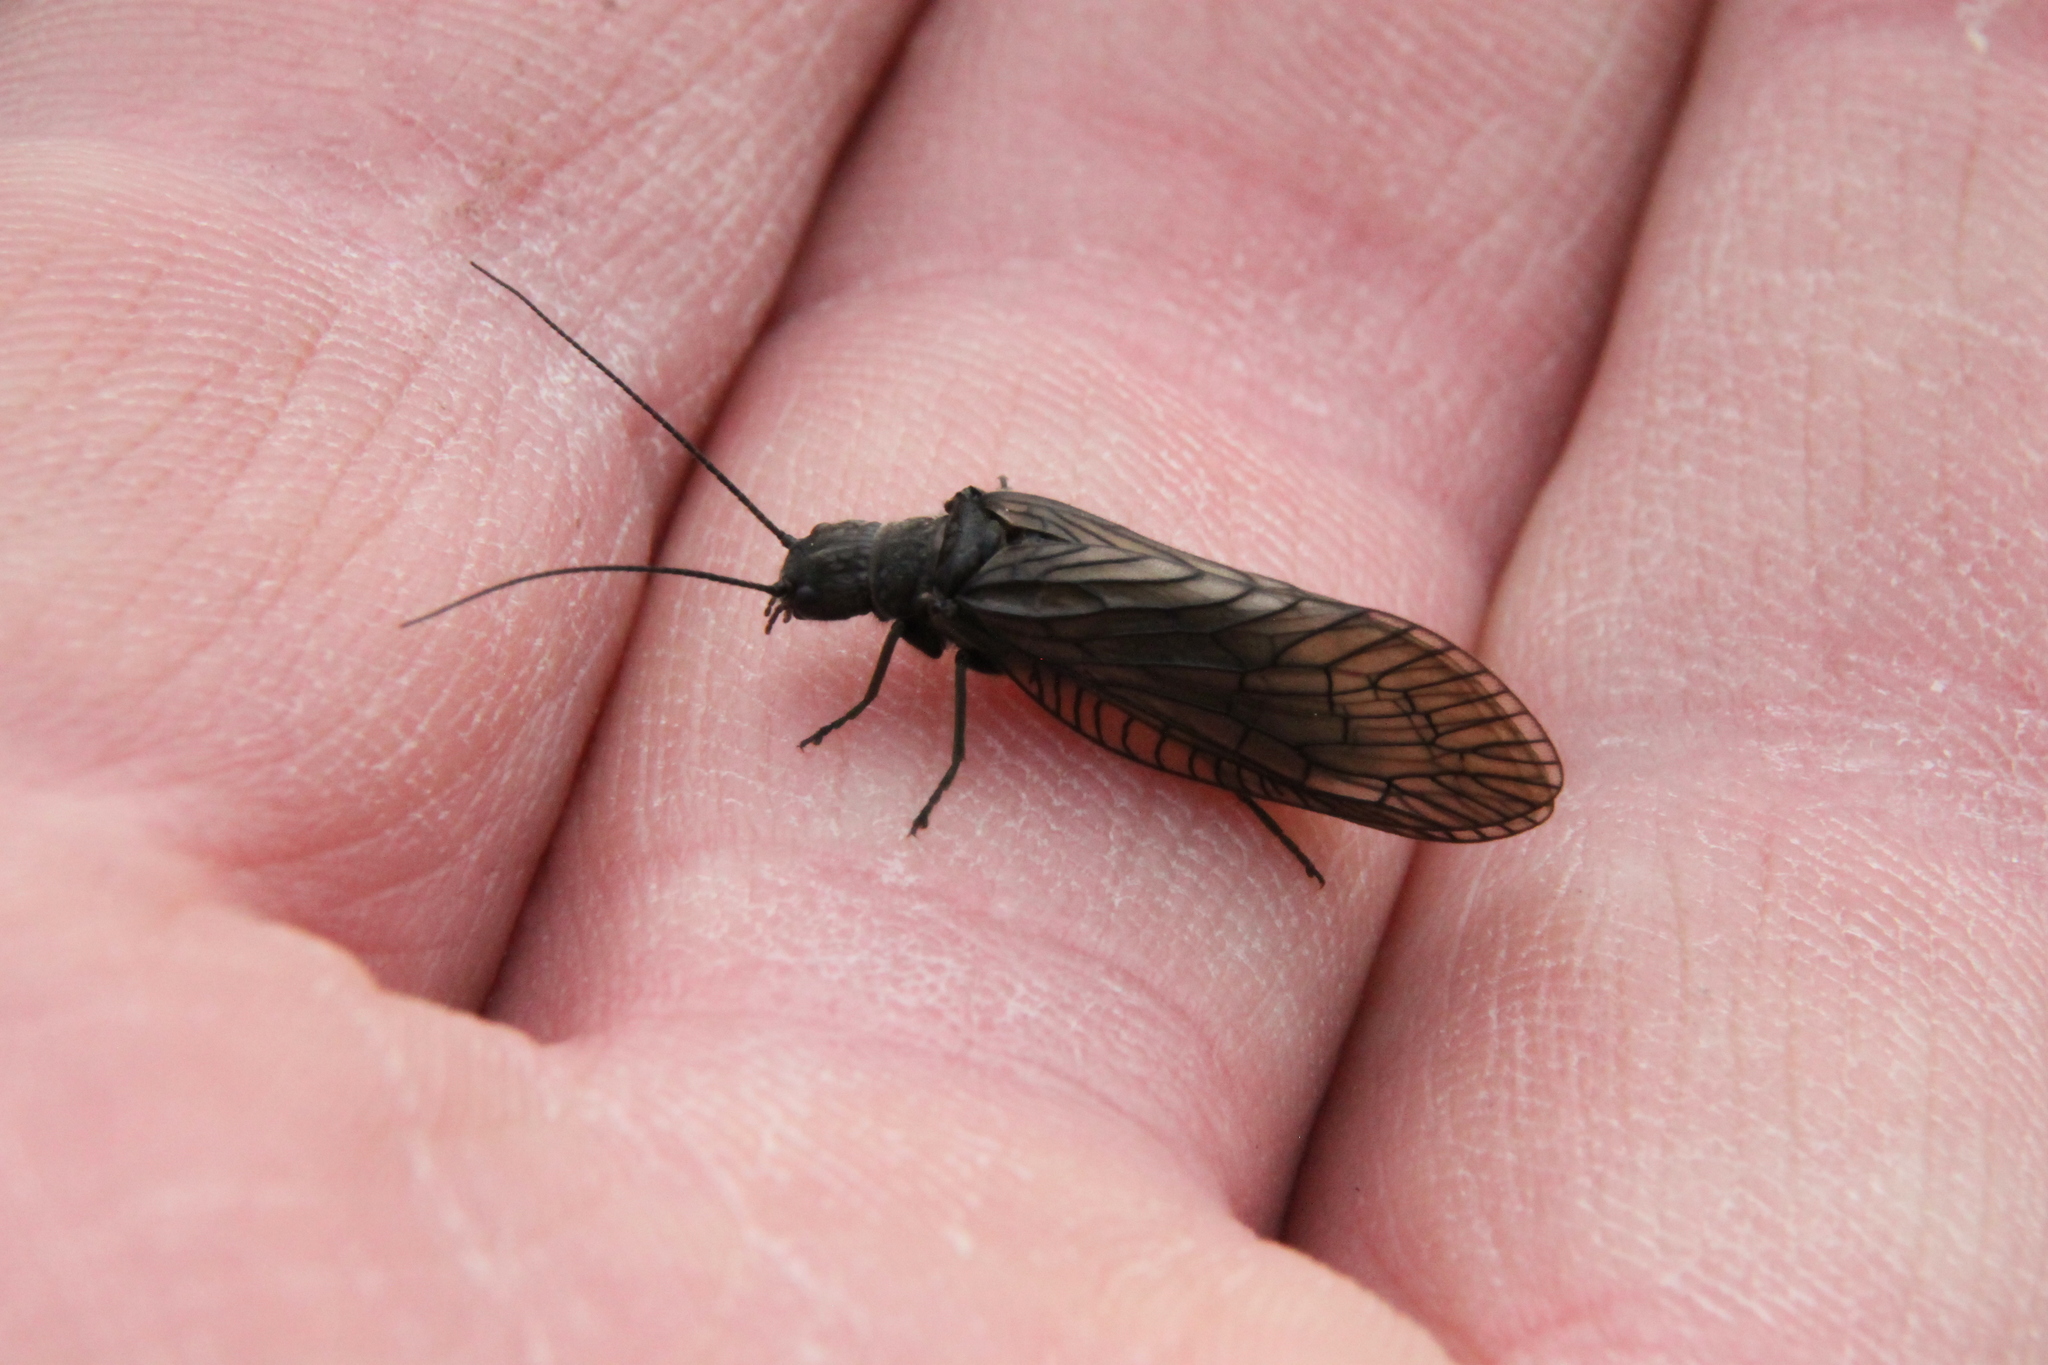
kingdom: Animalia
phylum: Arthropoda
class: Insecta
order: Megaloptera
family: Sialidae
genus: Sialis
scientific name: Sialis
